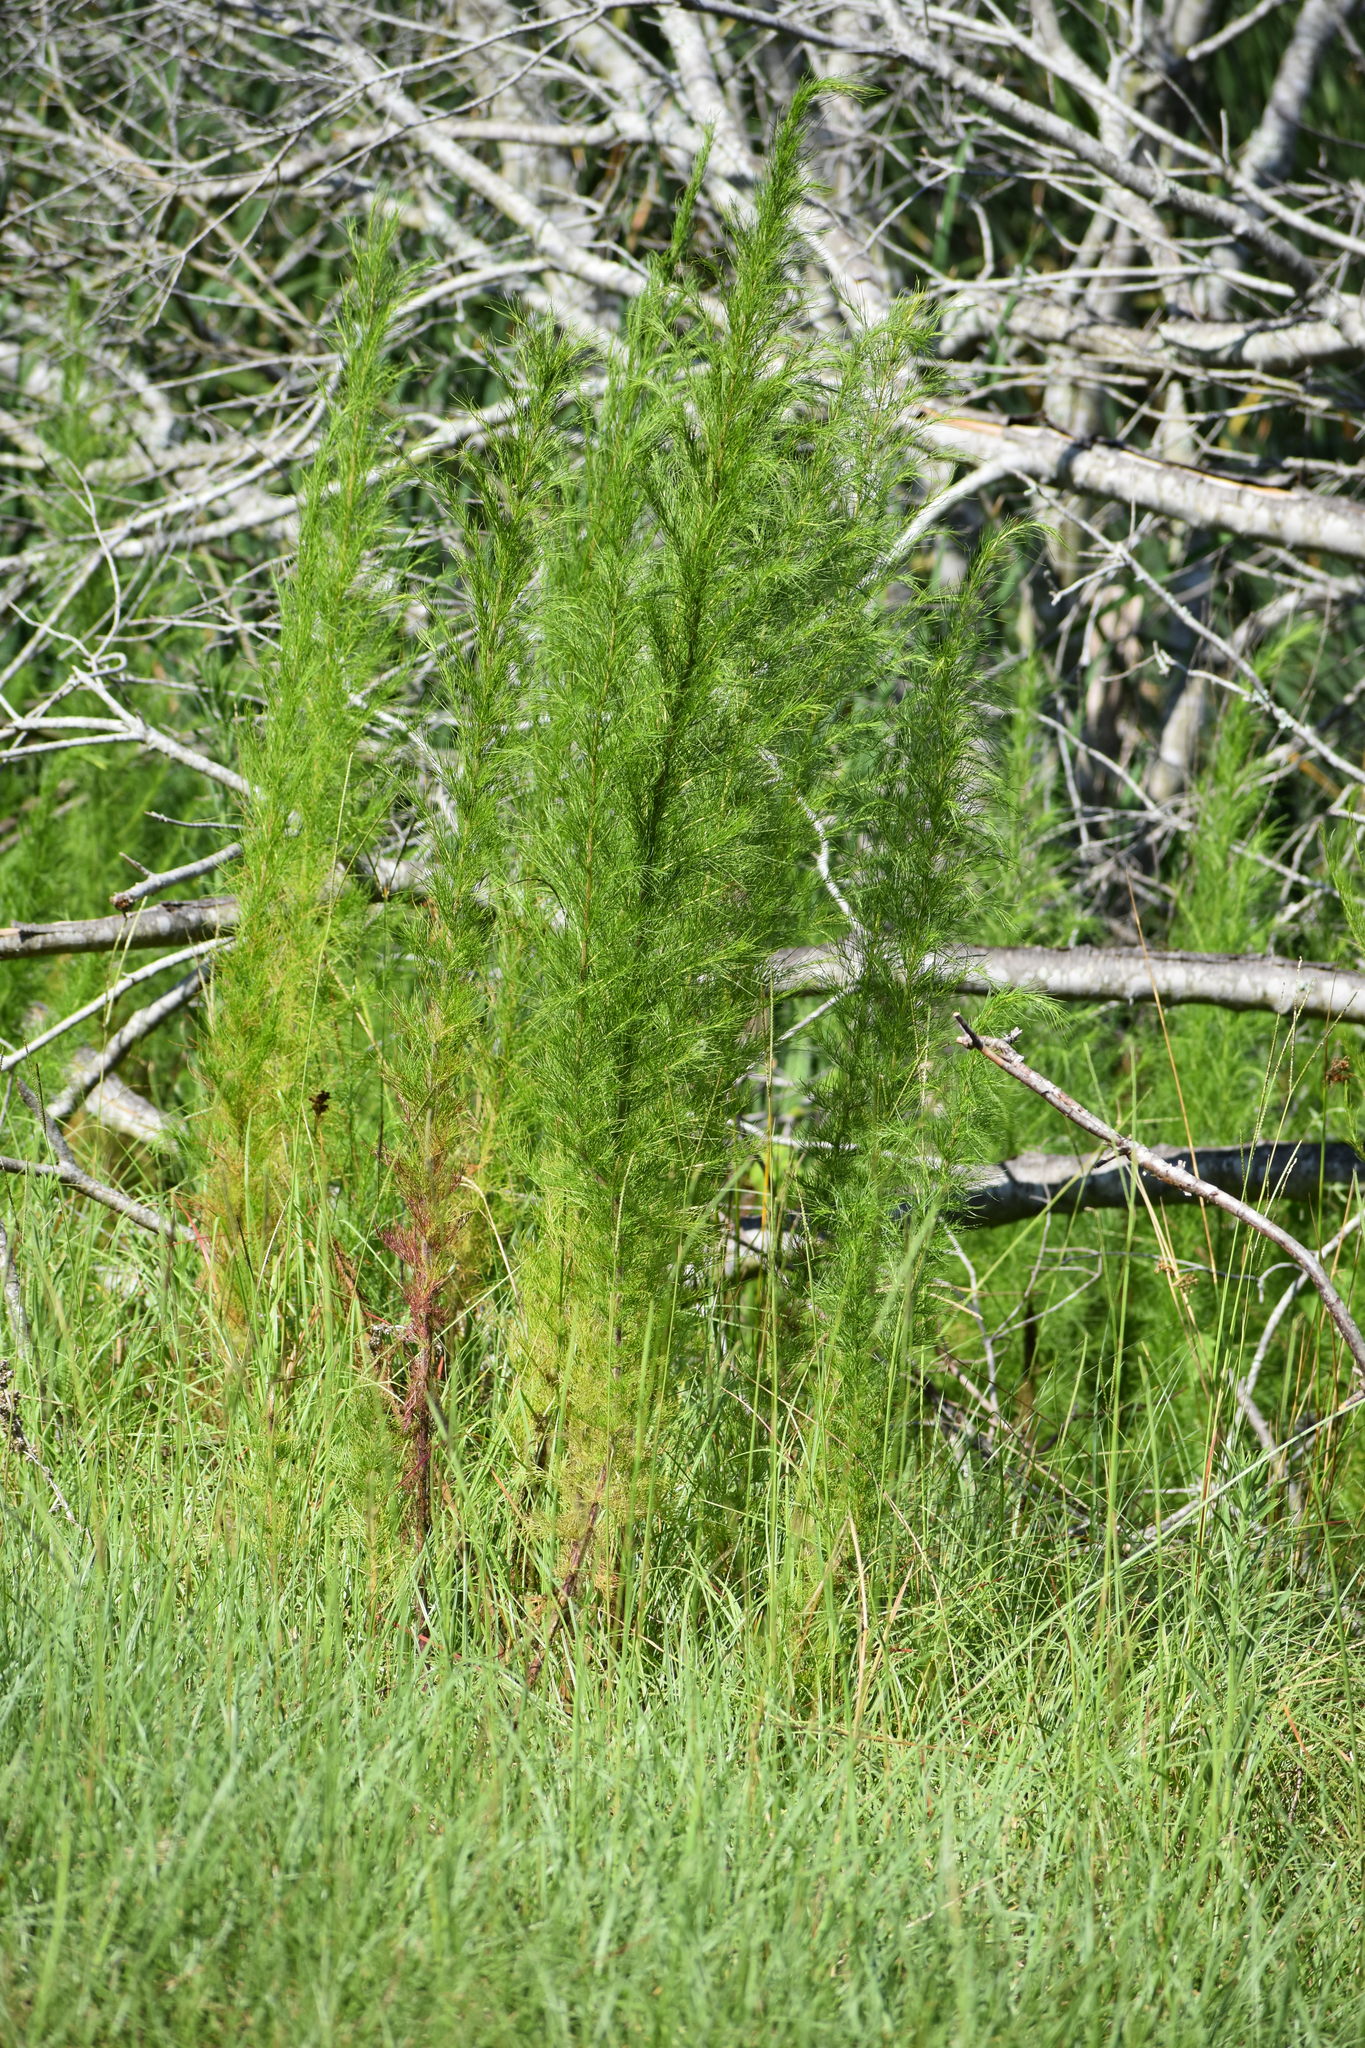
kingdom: Plantae
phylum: Tracheophyta
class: Magnoliopsida
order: Asterales
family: Asteraceae
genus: Eupatorium
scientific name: Eupatorium capillifolium
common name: Dog-fennel
